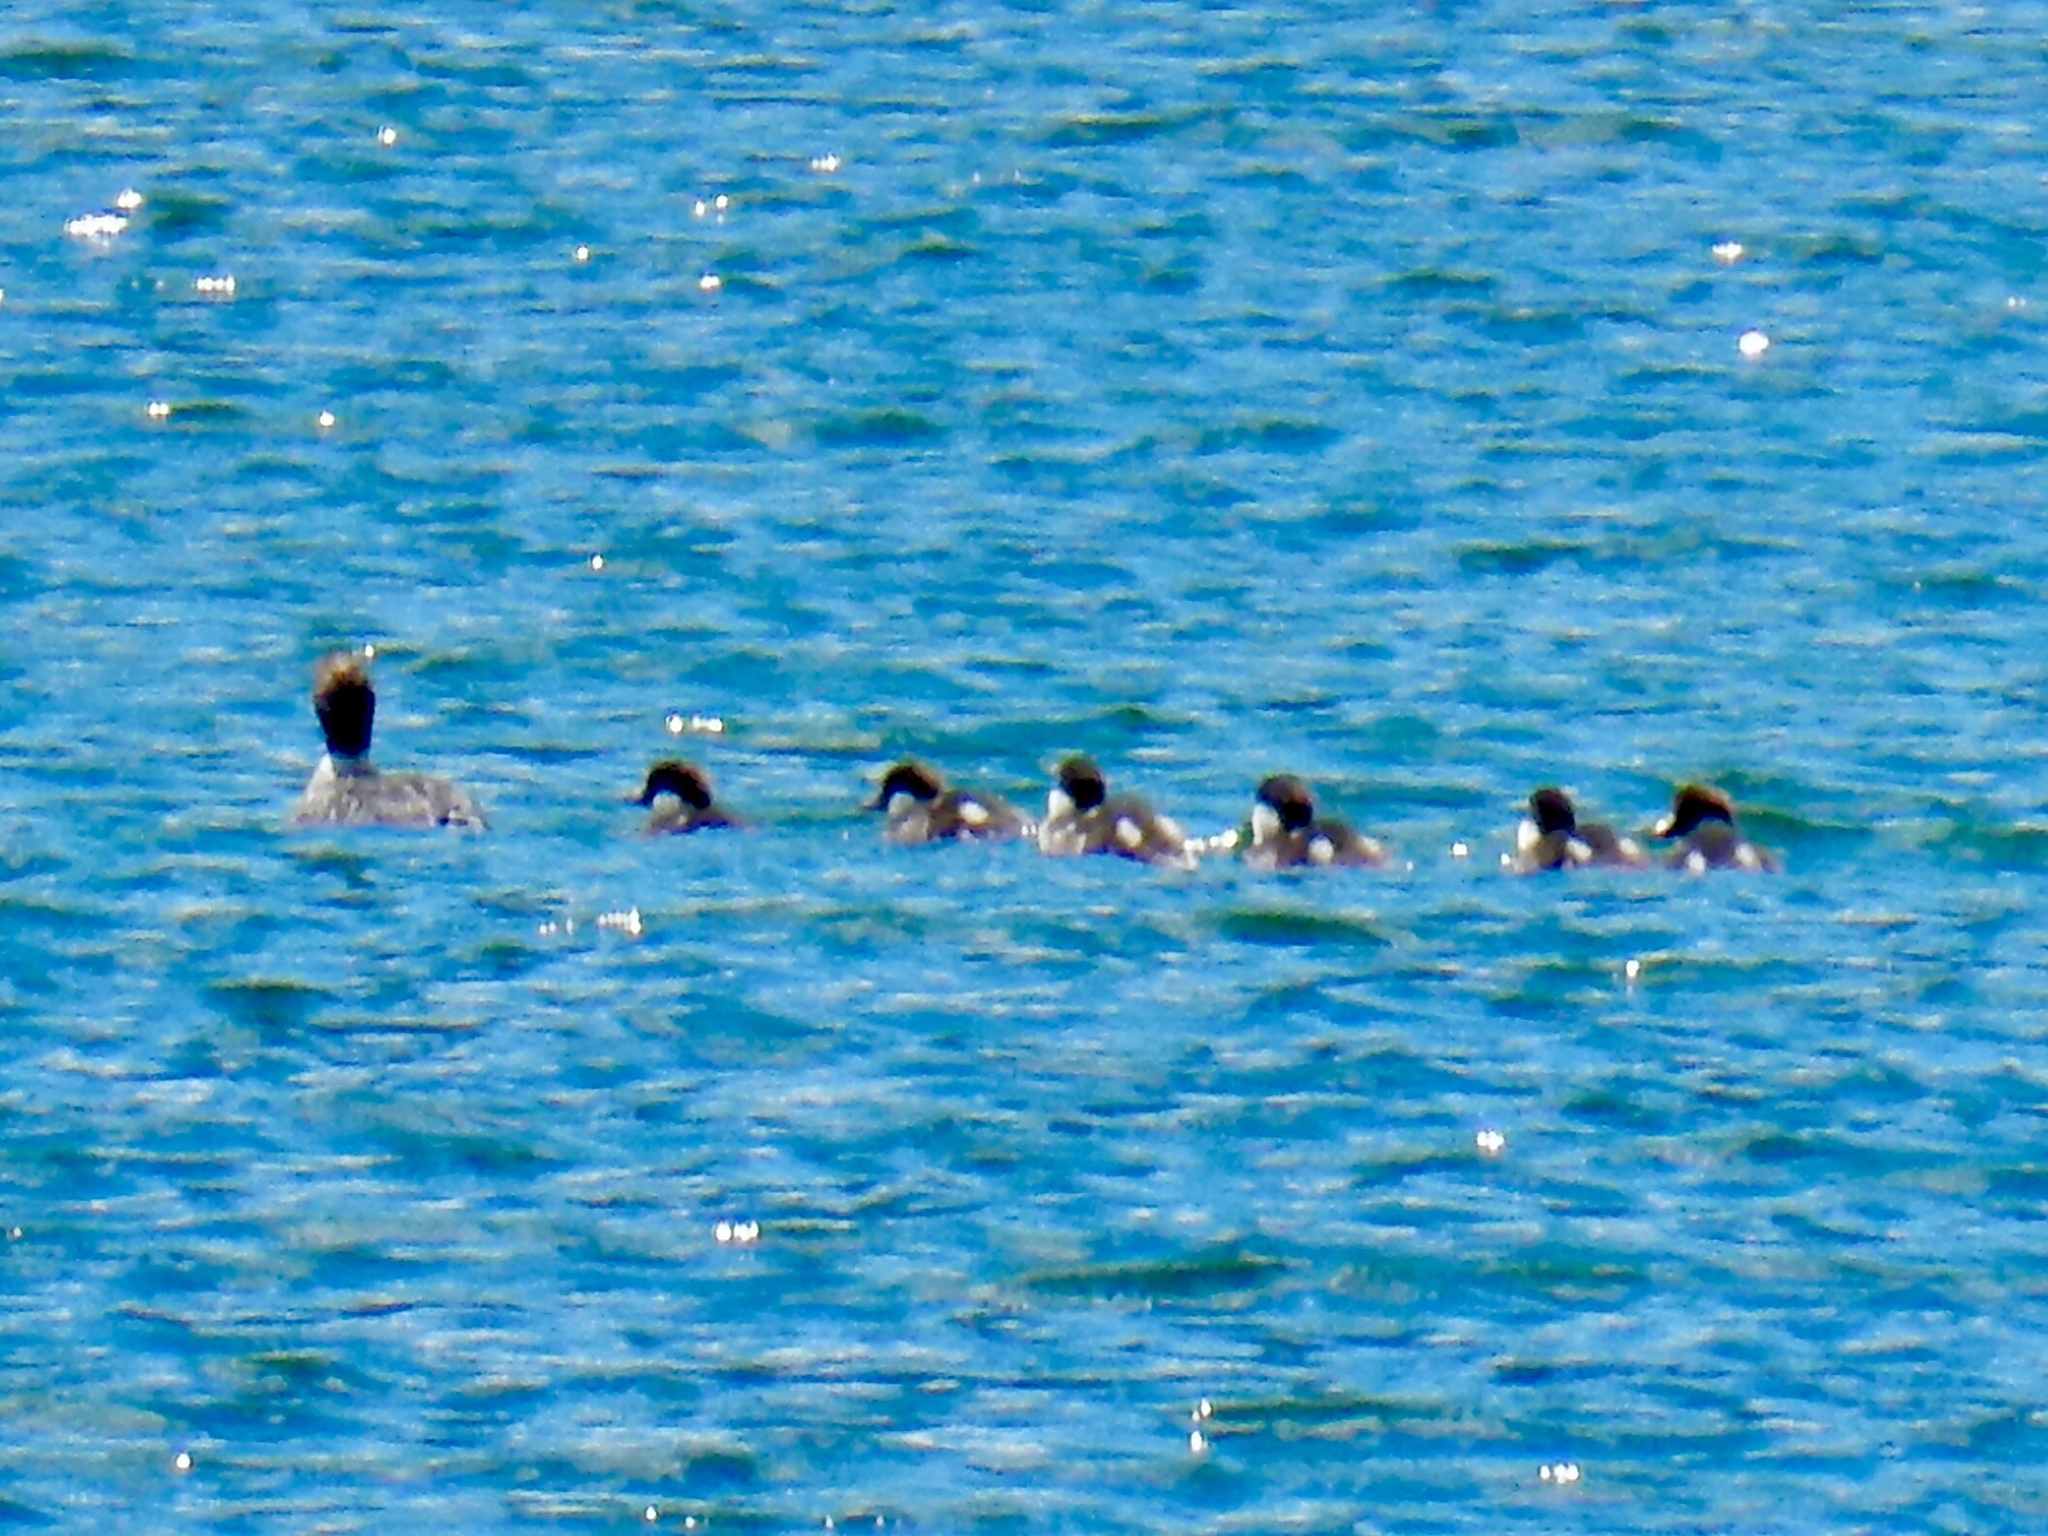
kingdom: Animalia
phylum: Chordata
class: Aves
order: Anseriformes
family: Anatidae
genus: Mergus
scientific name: Mergus merganser
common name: Common merganser
